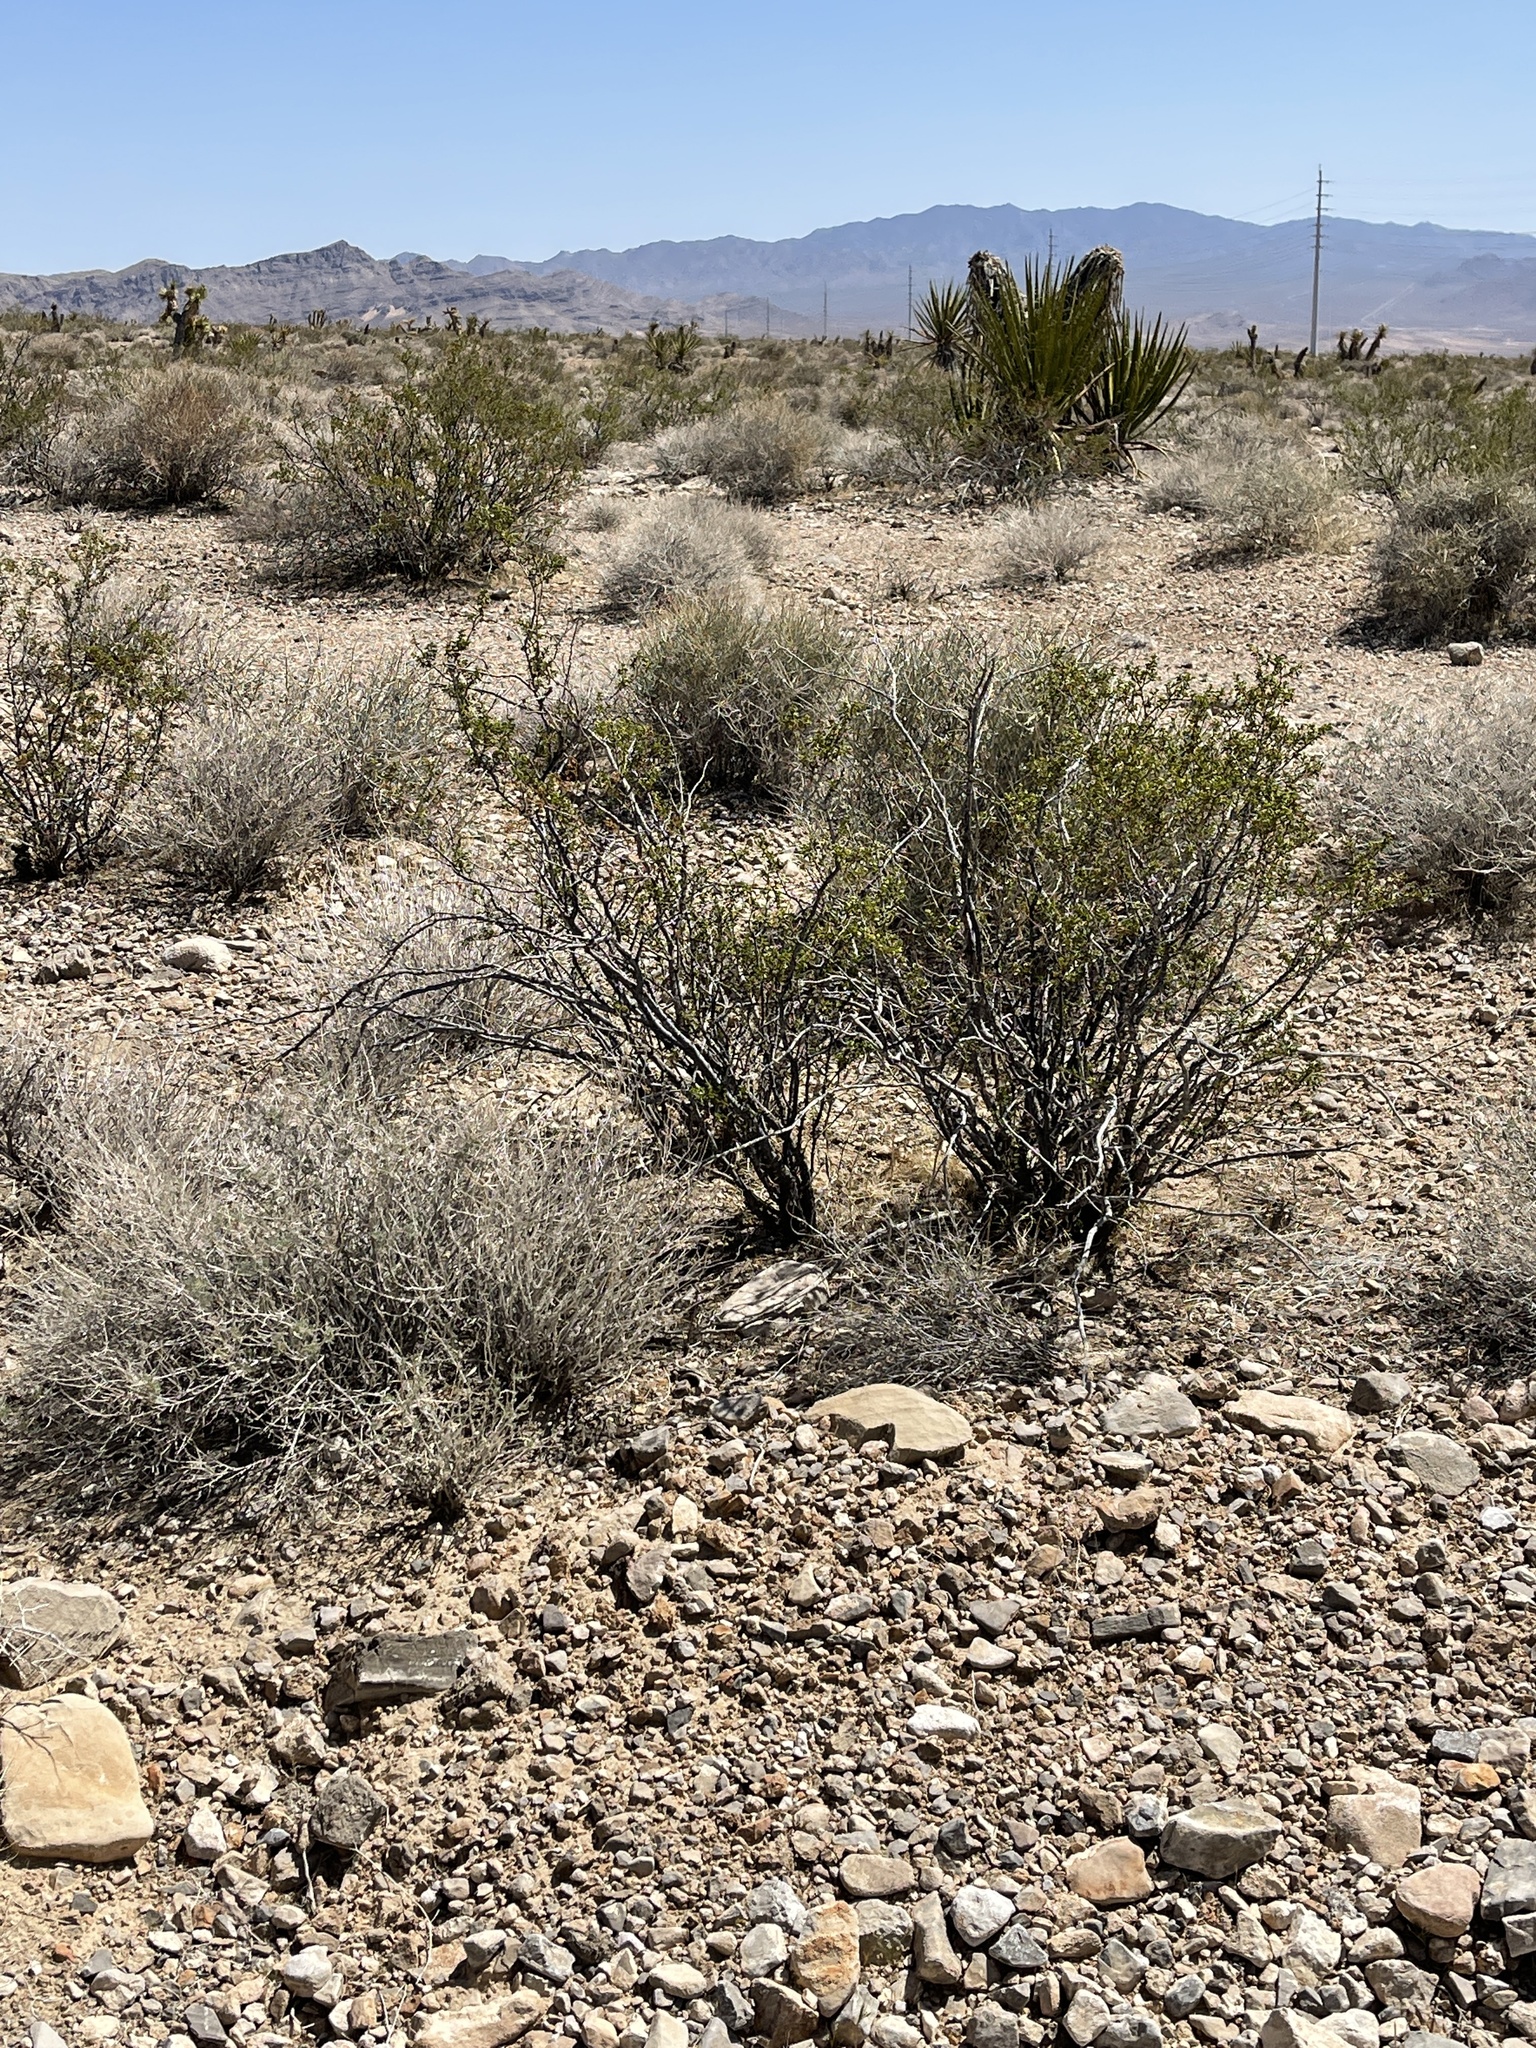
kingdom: Plantae
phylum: Tracheophyta
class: Magnoliopsida
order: Zygophyllales
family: Zygophyllaceae
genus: Larrea
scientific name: Larrea tridentata
